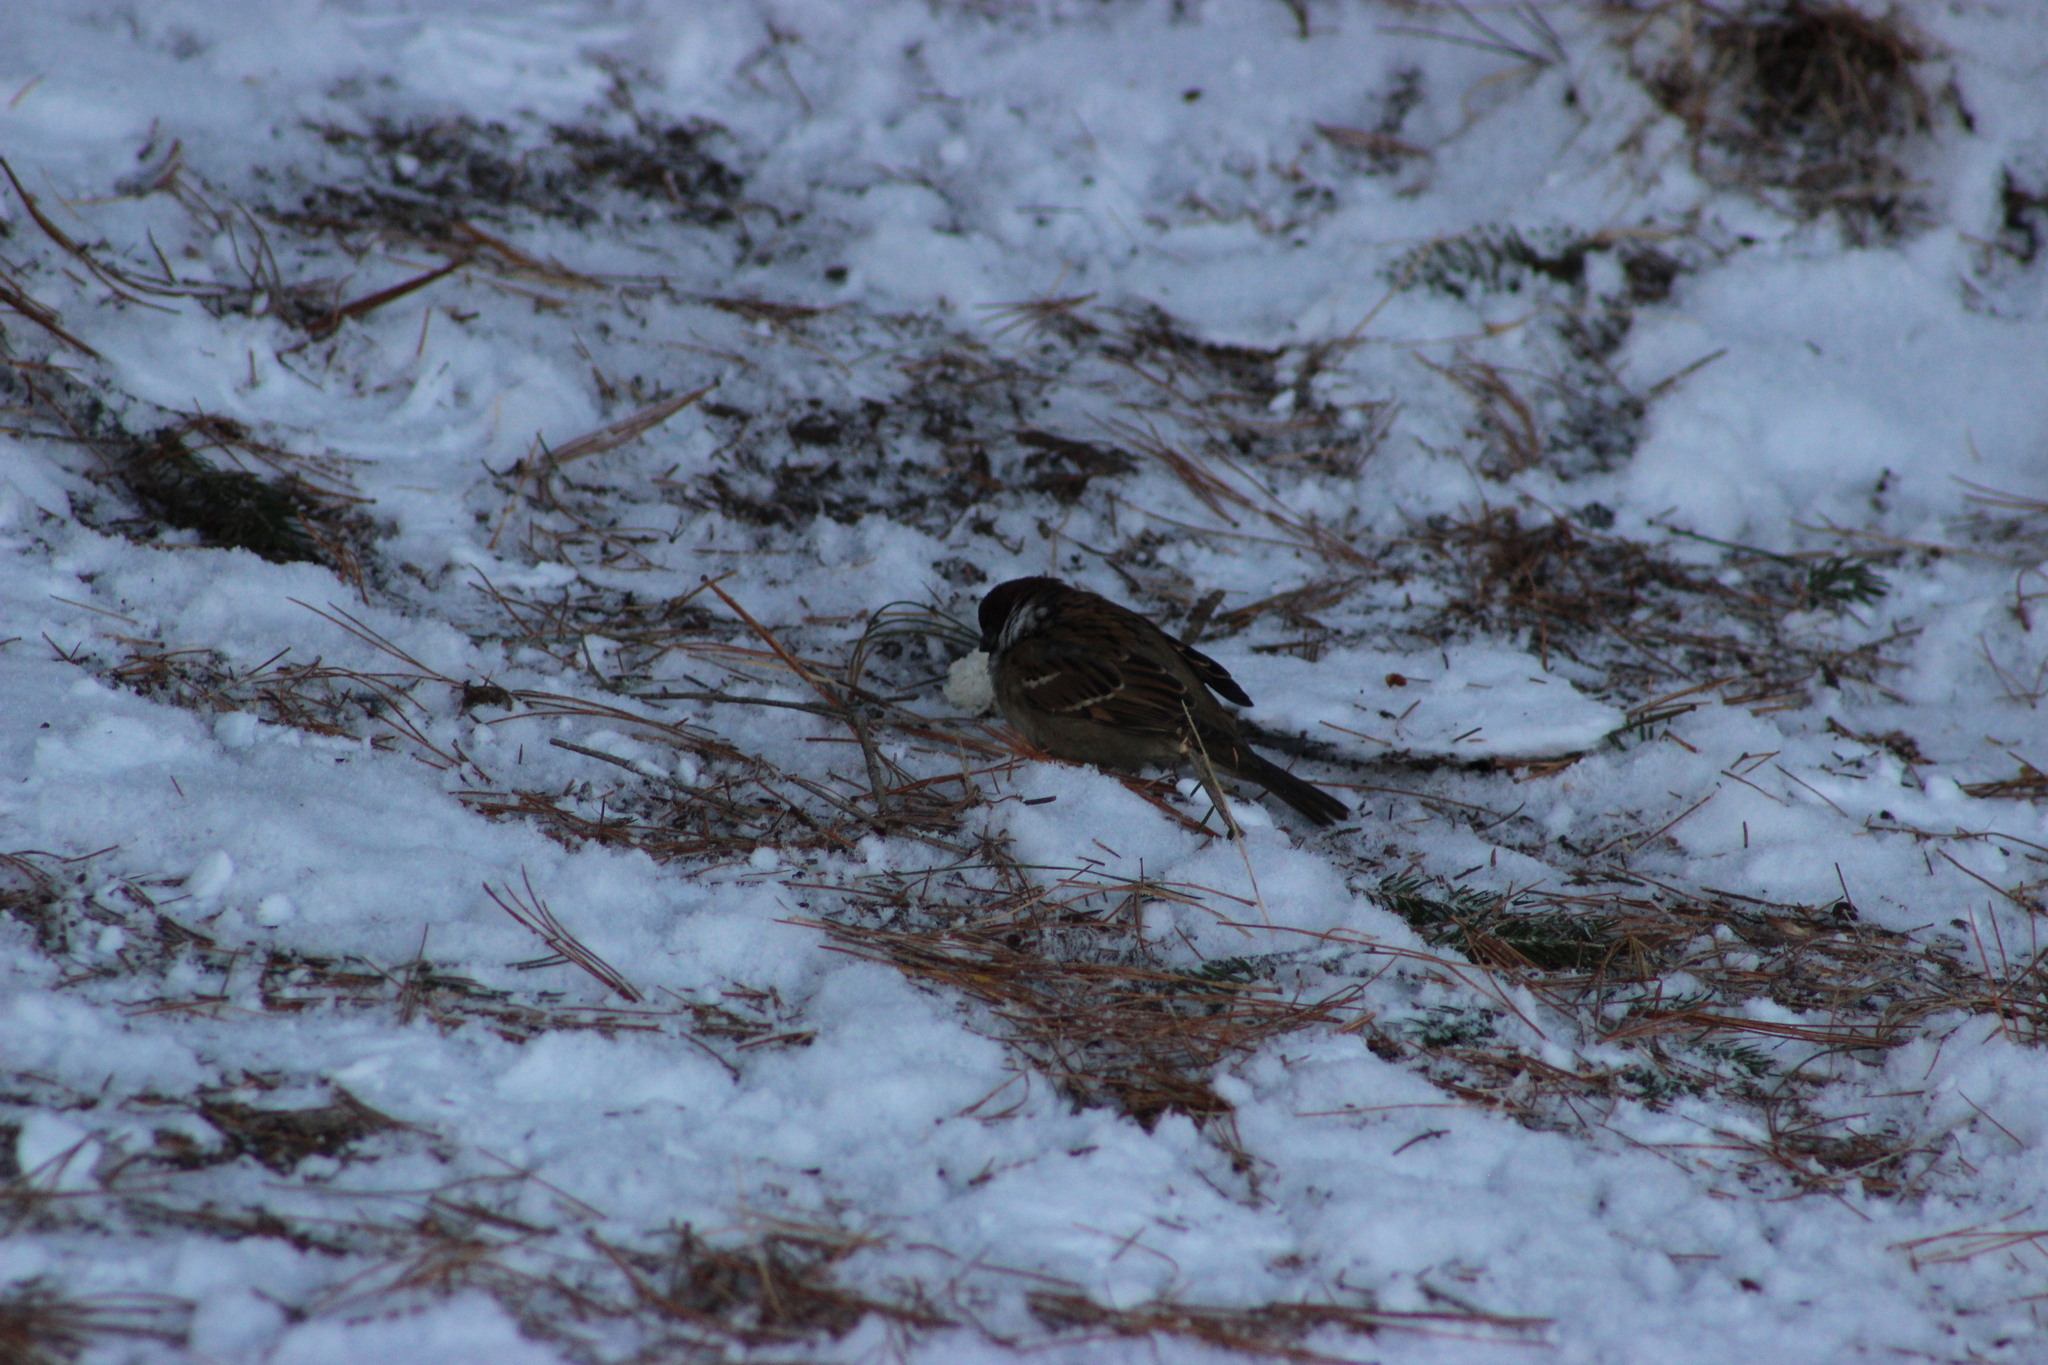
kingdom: Animalia
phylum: Chordata
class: Aves
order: Passeriformes
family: Passeridae
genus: Passer
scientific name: Passer montanus
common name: Eurasian tree sparrow
